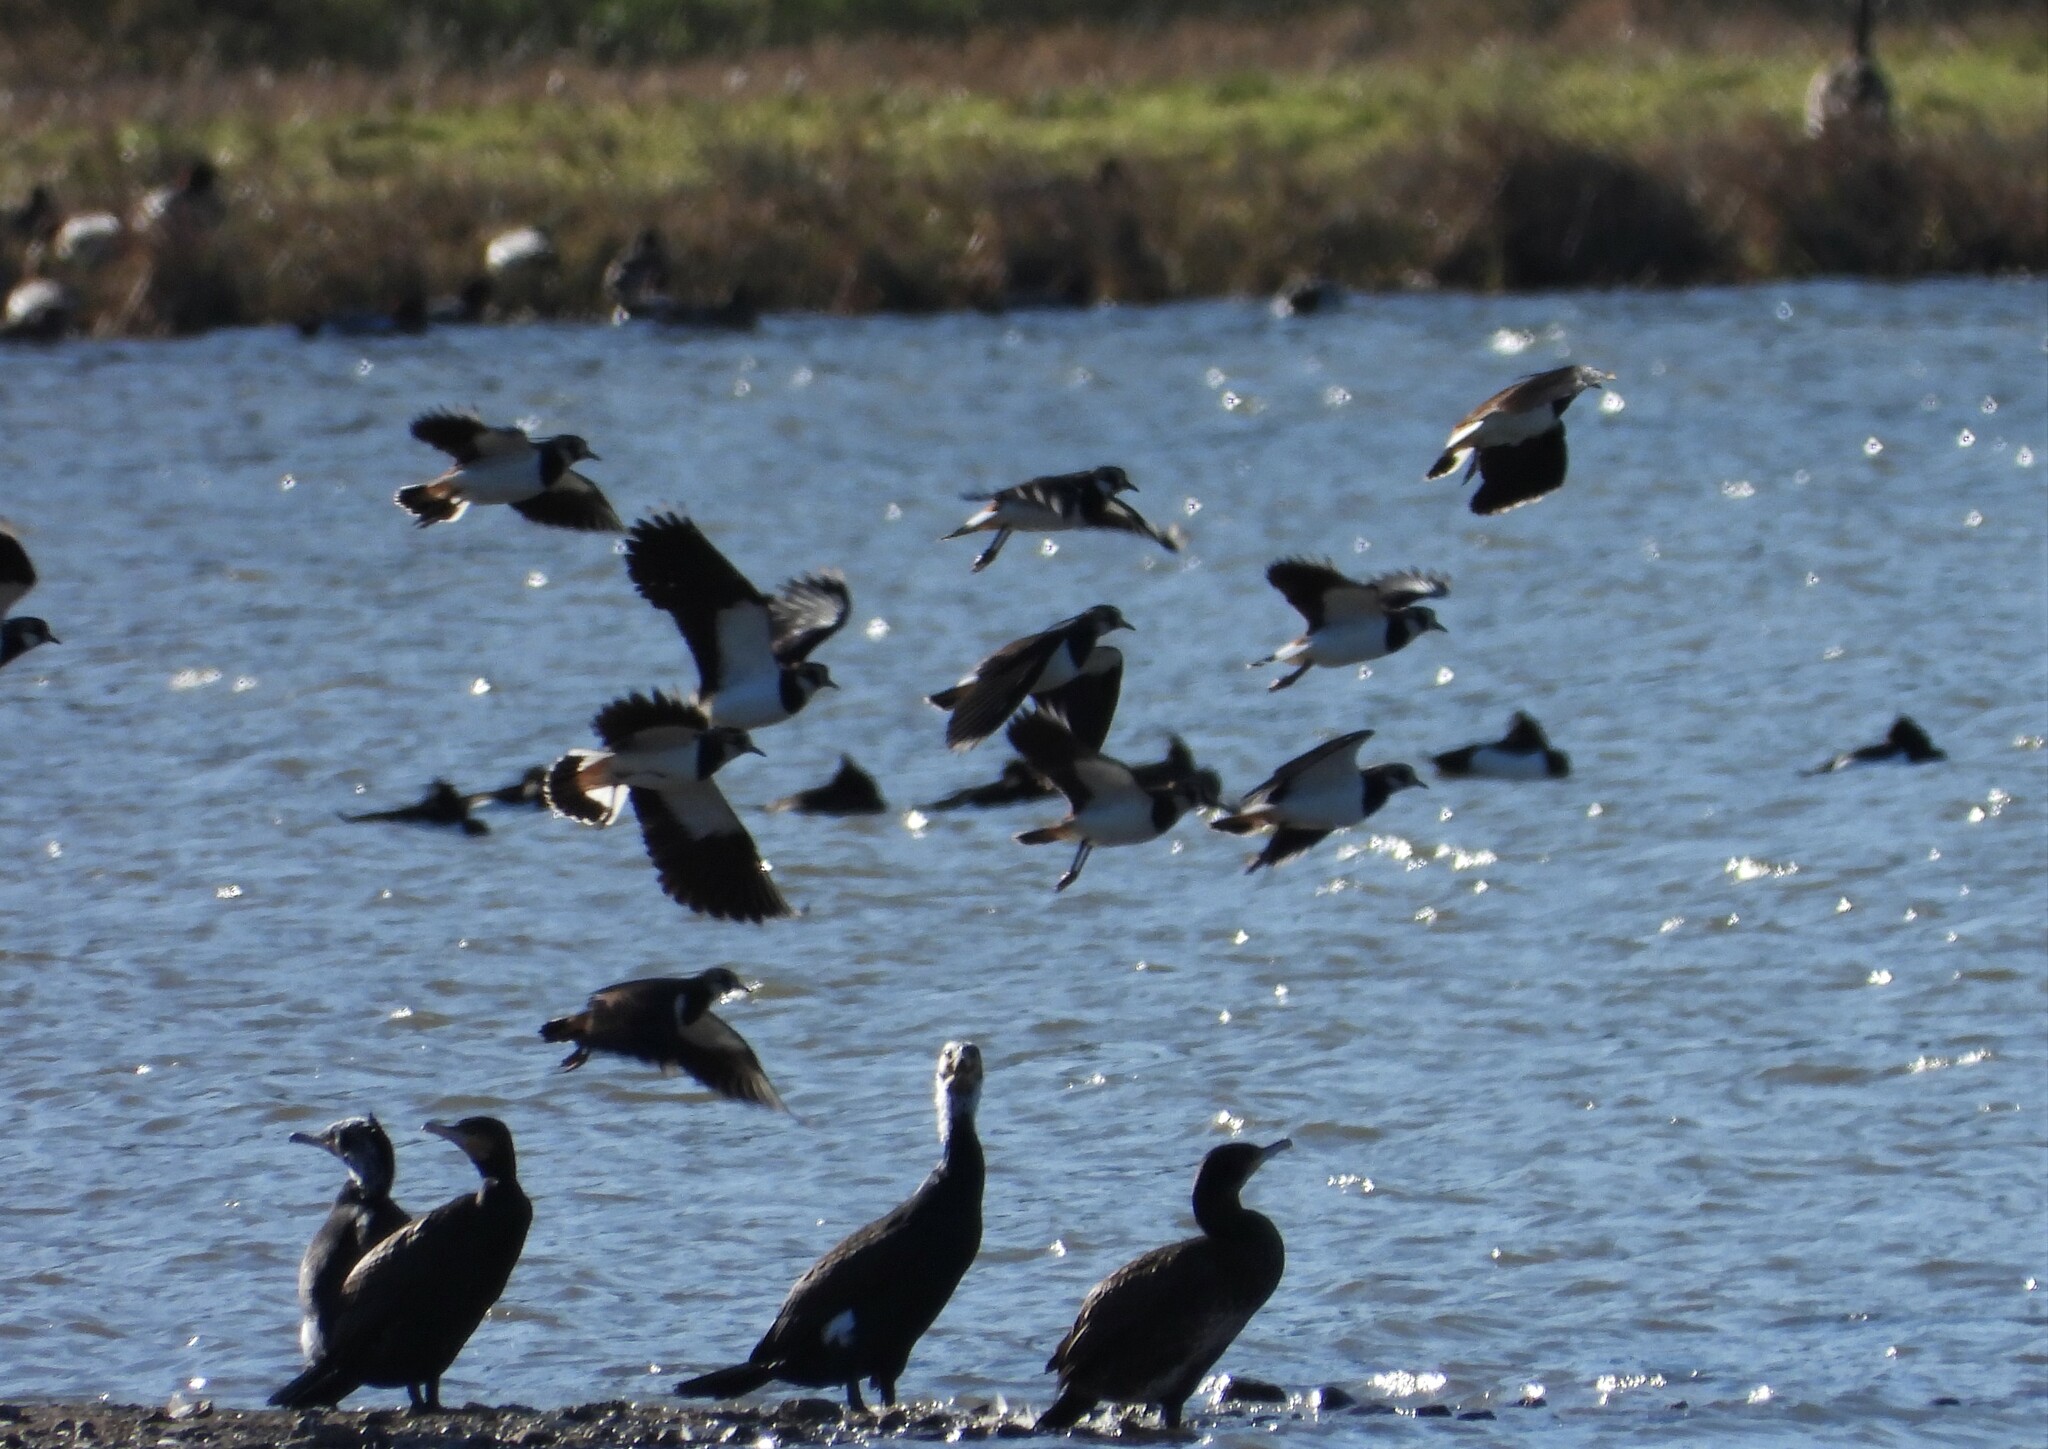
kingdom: Animalia
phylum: Chordata
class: Aves
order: Charadriiformes
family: Charadriidae
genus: Vanellus
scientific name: Vanellus vanellus
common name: Northern lapwing
